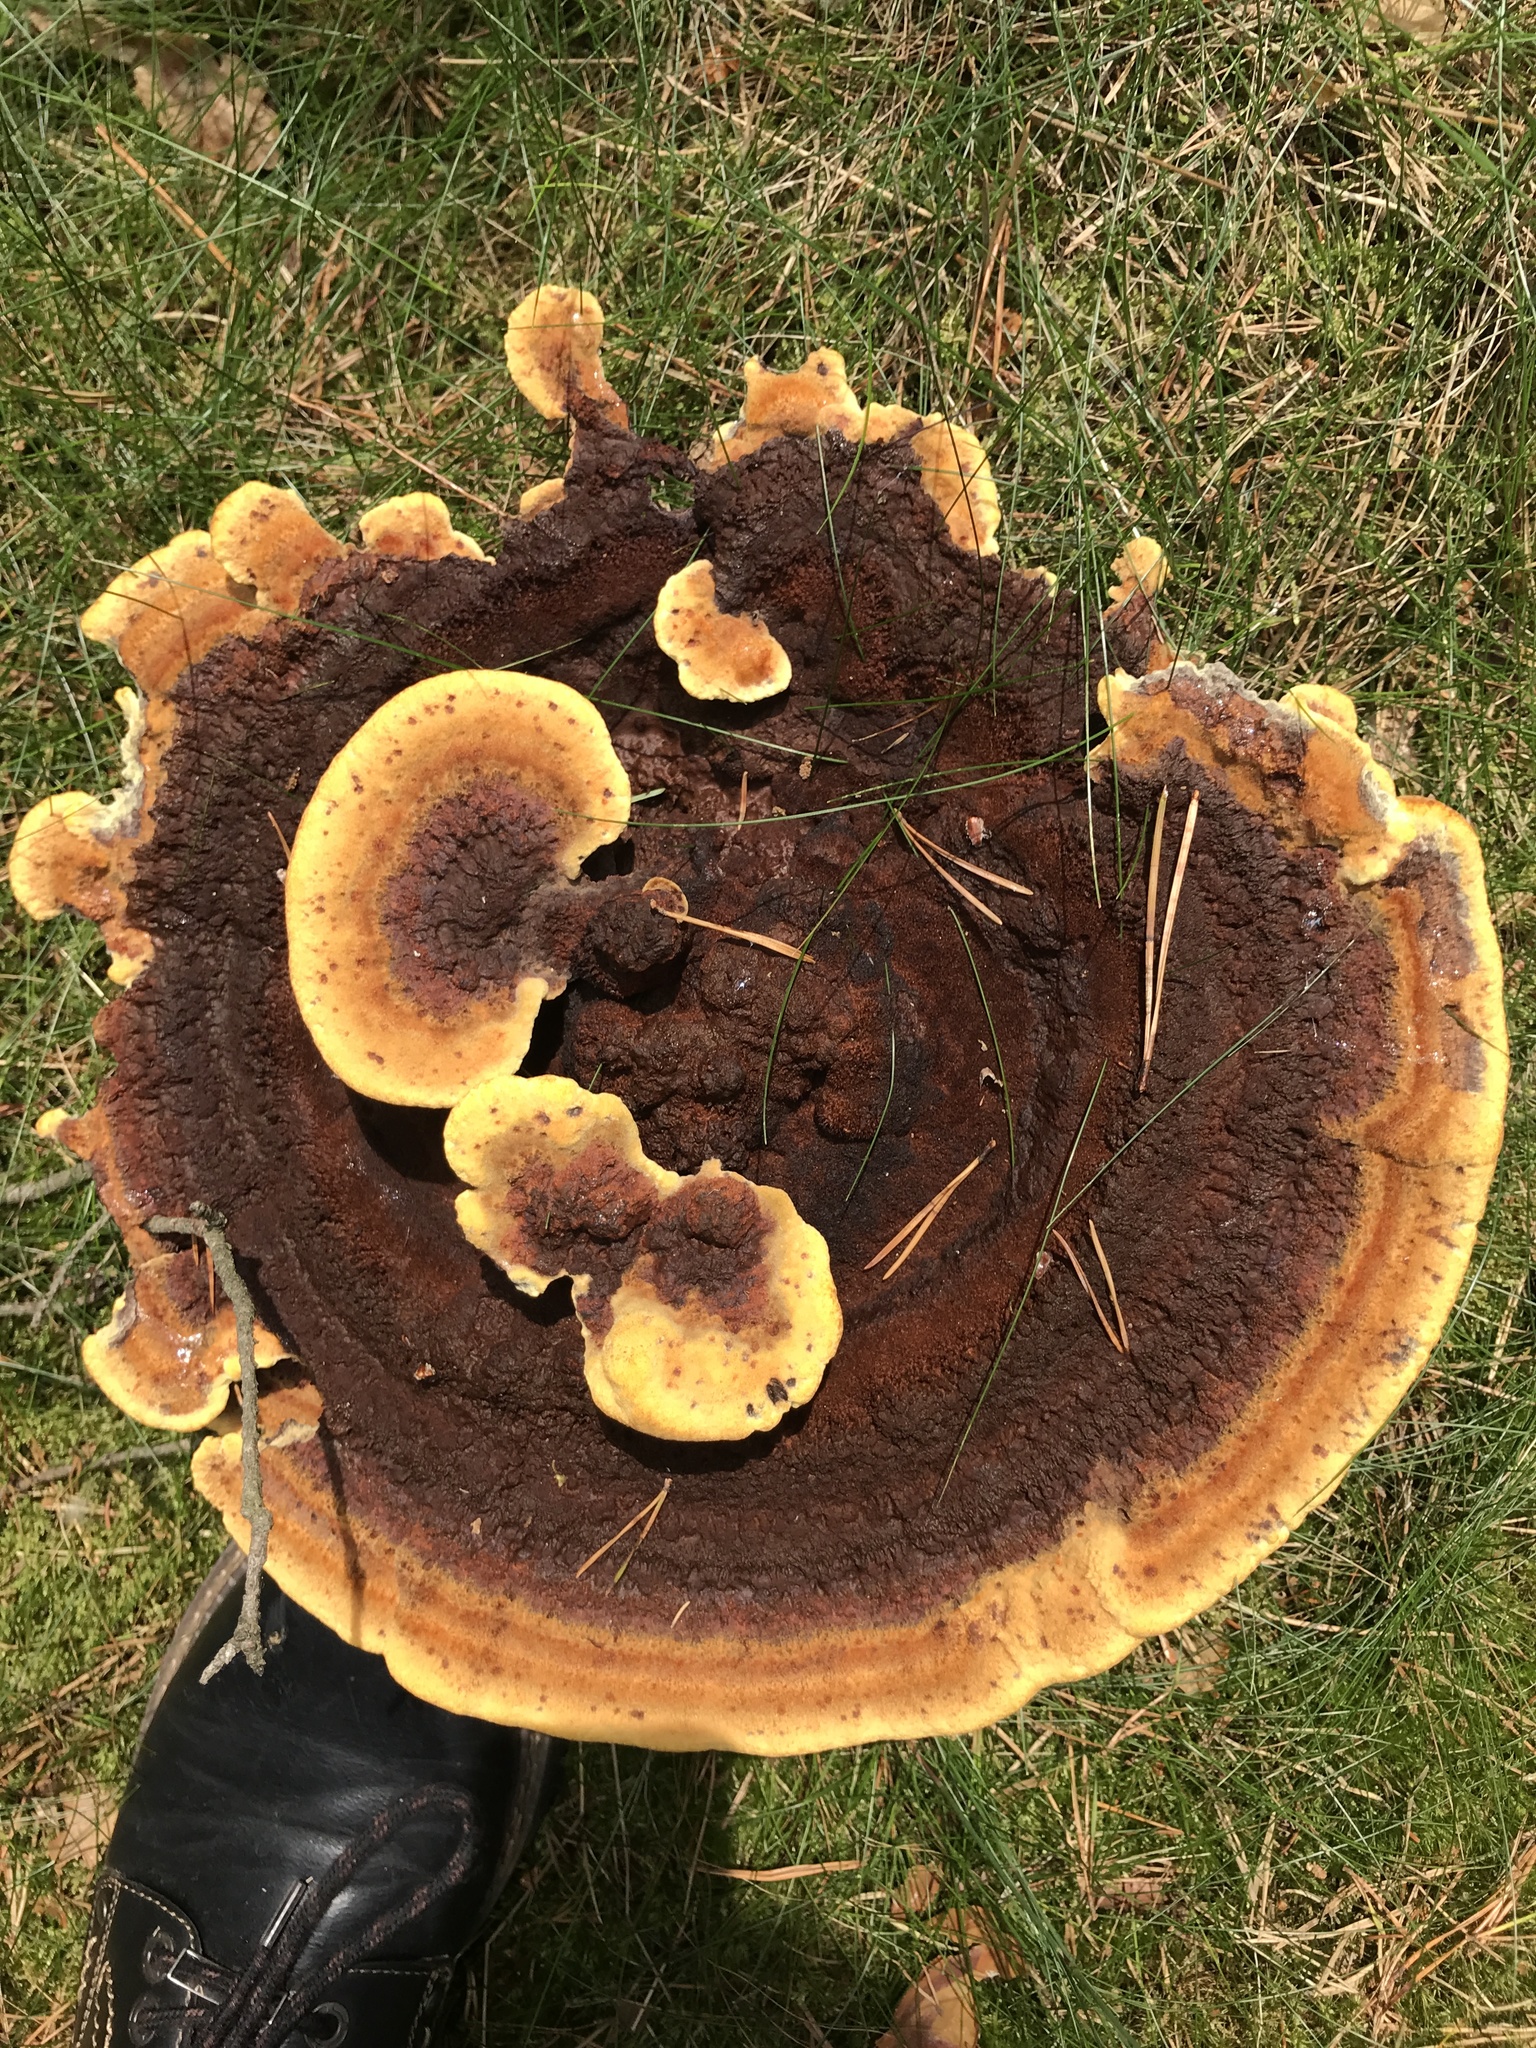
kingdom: Fungi
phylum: Basidiomycota
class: Agaricomycetes
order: Polyporales
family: Laetiporaceae
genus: Phaeolus
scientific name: Phaeolus schweinitzii
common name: Dyer's mazegill
